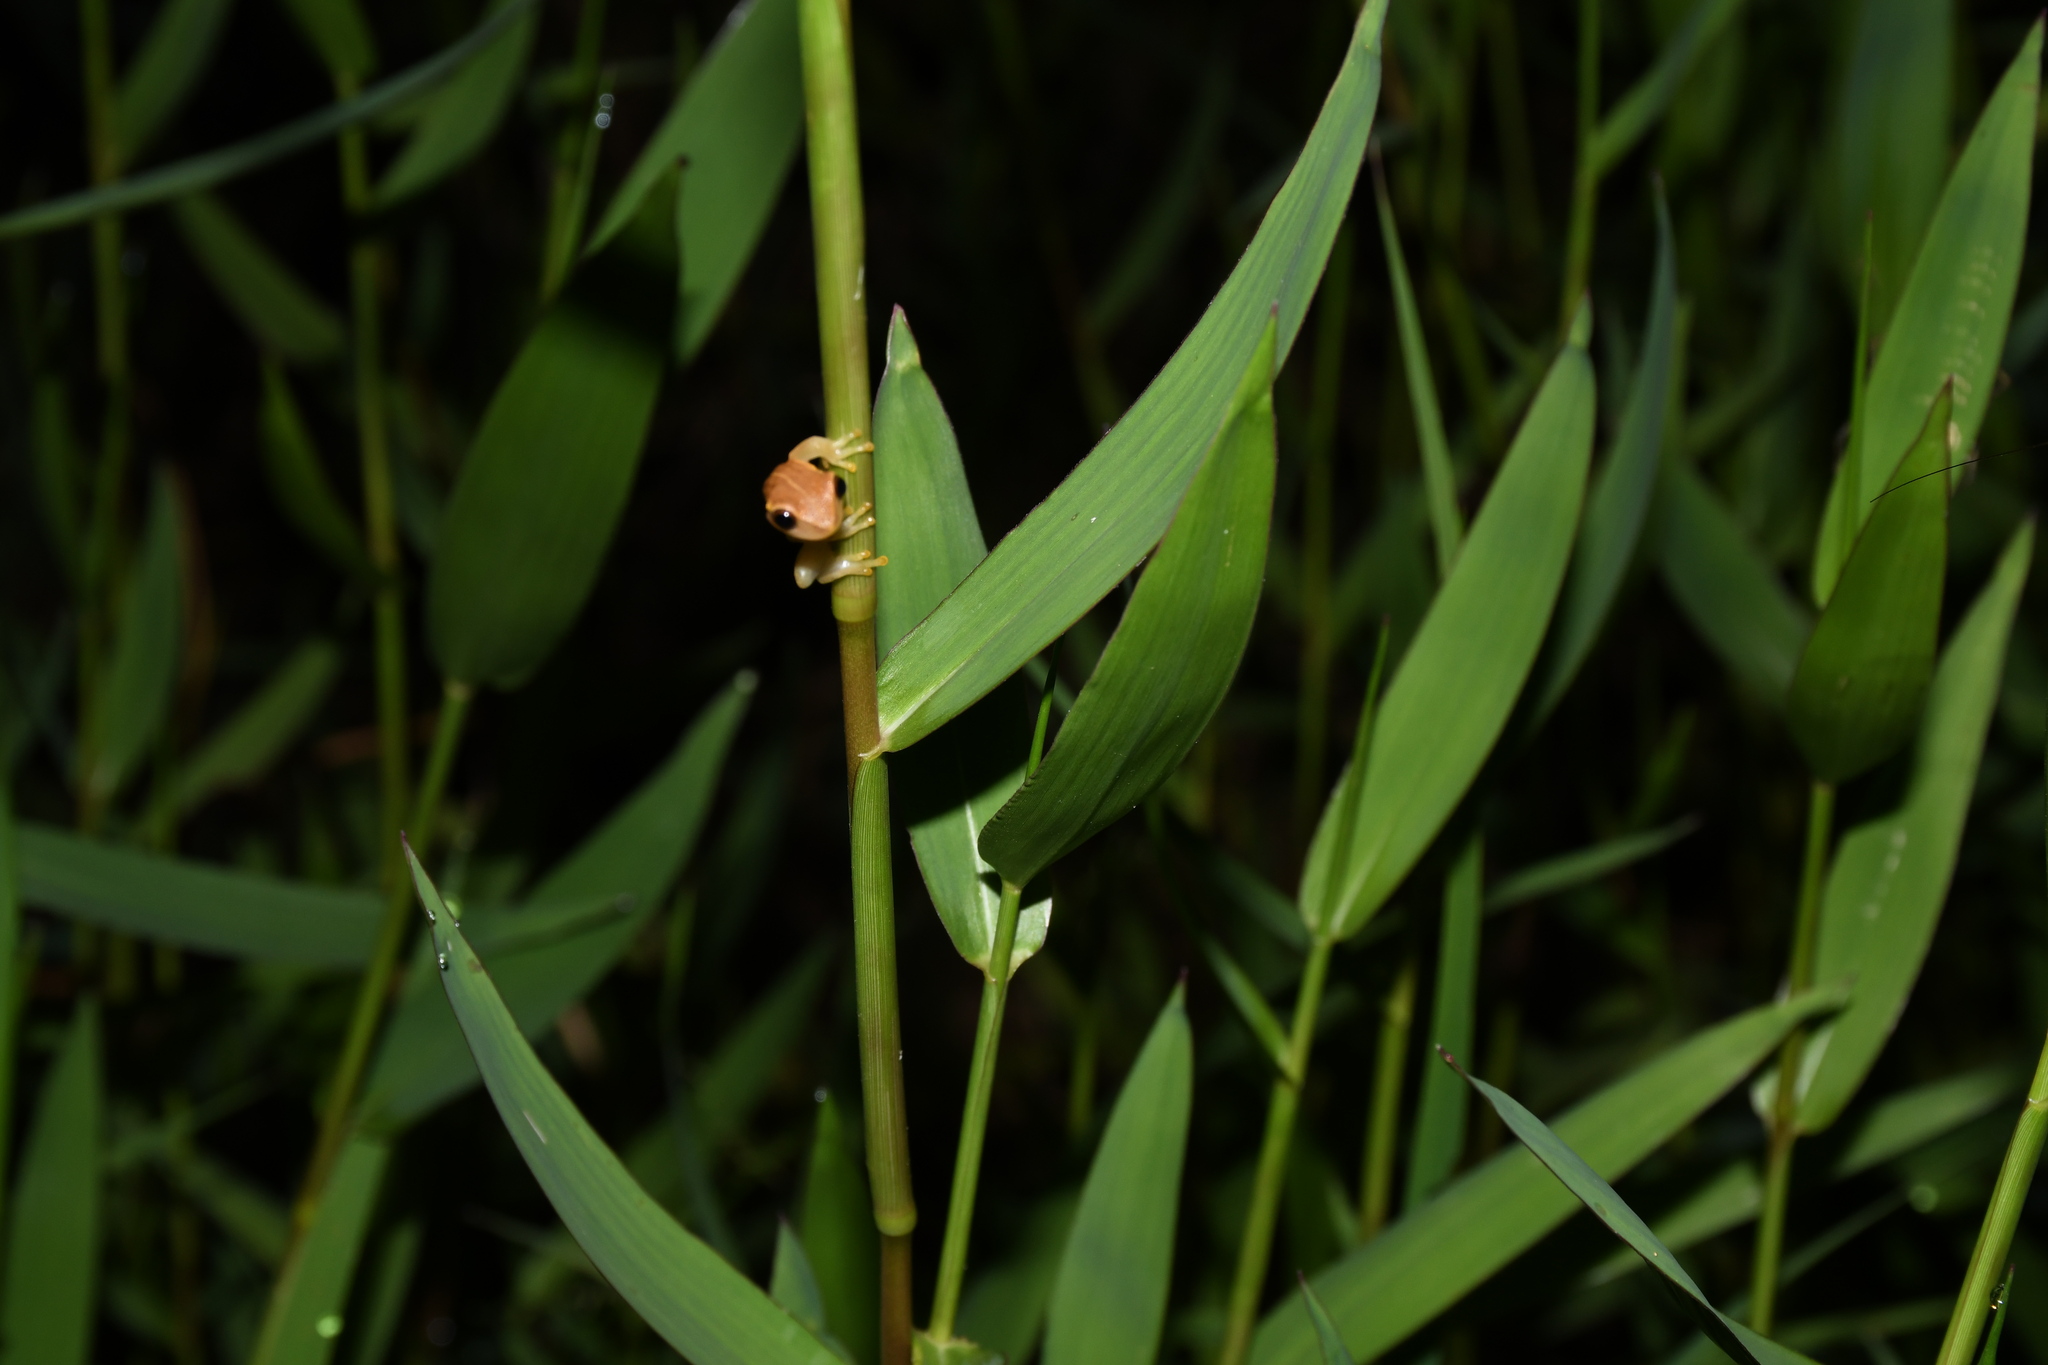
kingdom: Animalia
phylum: Chordata
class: Amphibia
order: Anura
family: Hylidae
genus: Dendropsophus
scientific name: Dendropsophus walfordi
